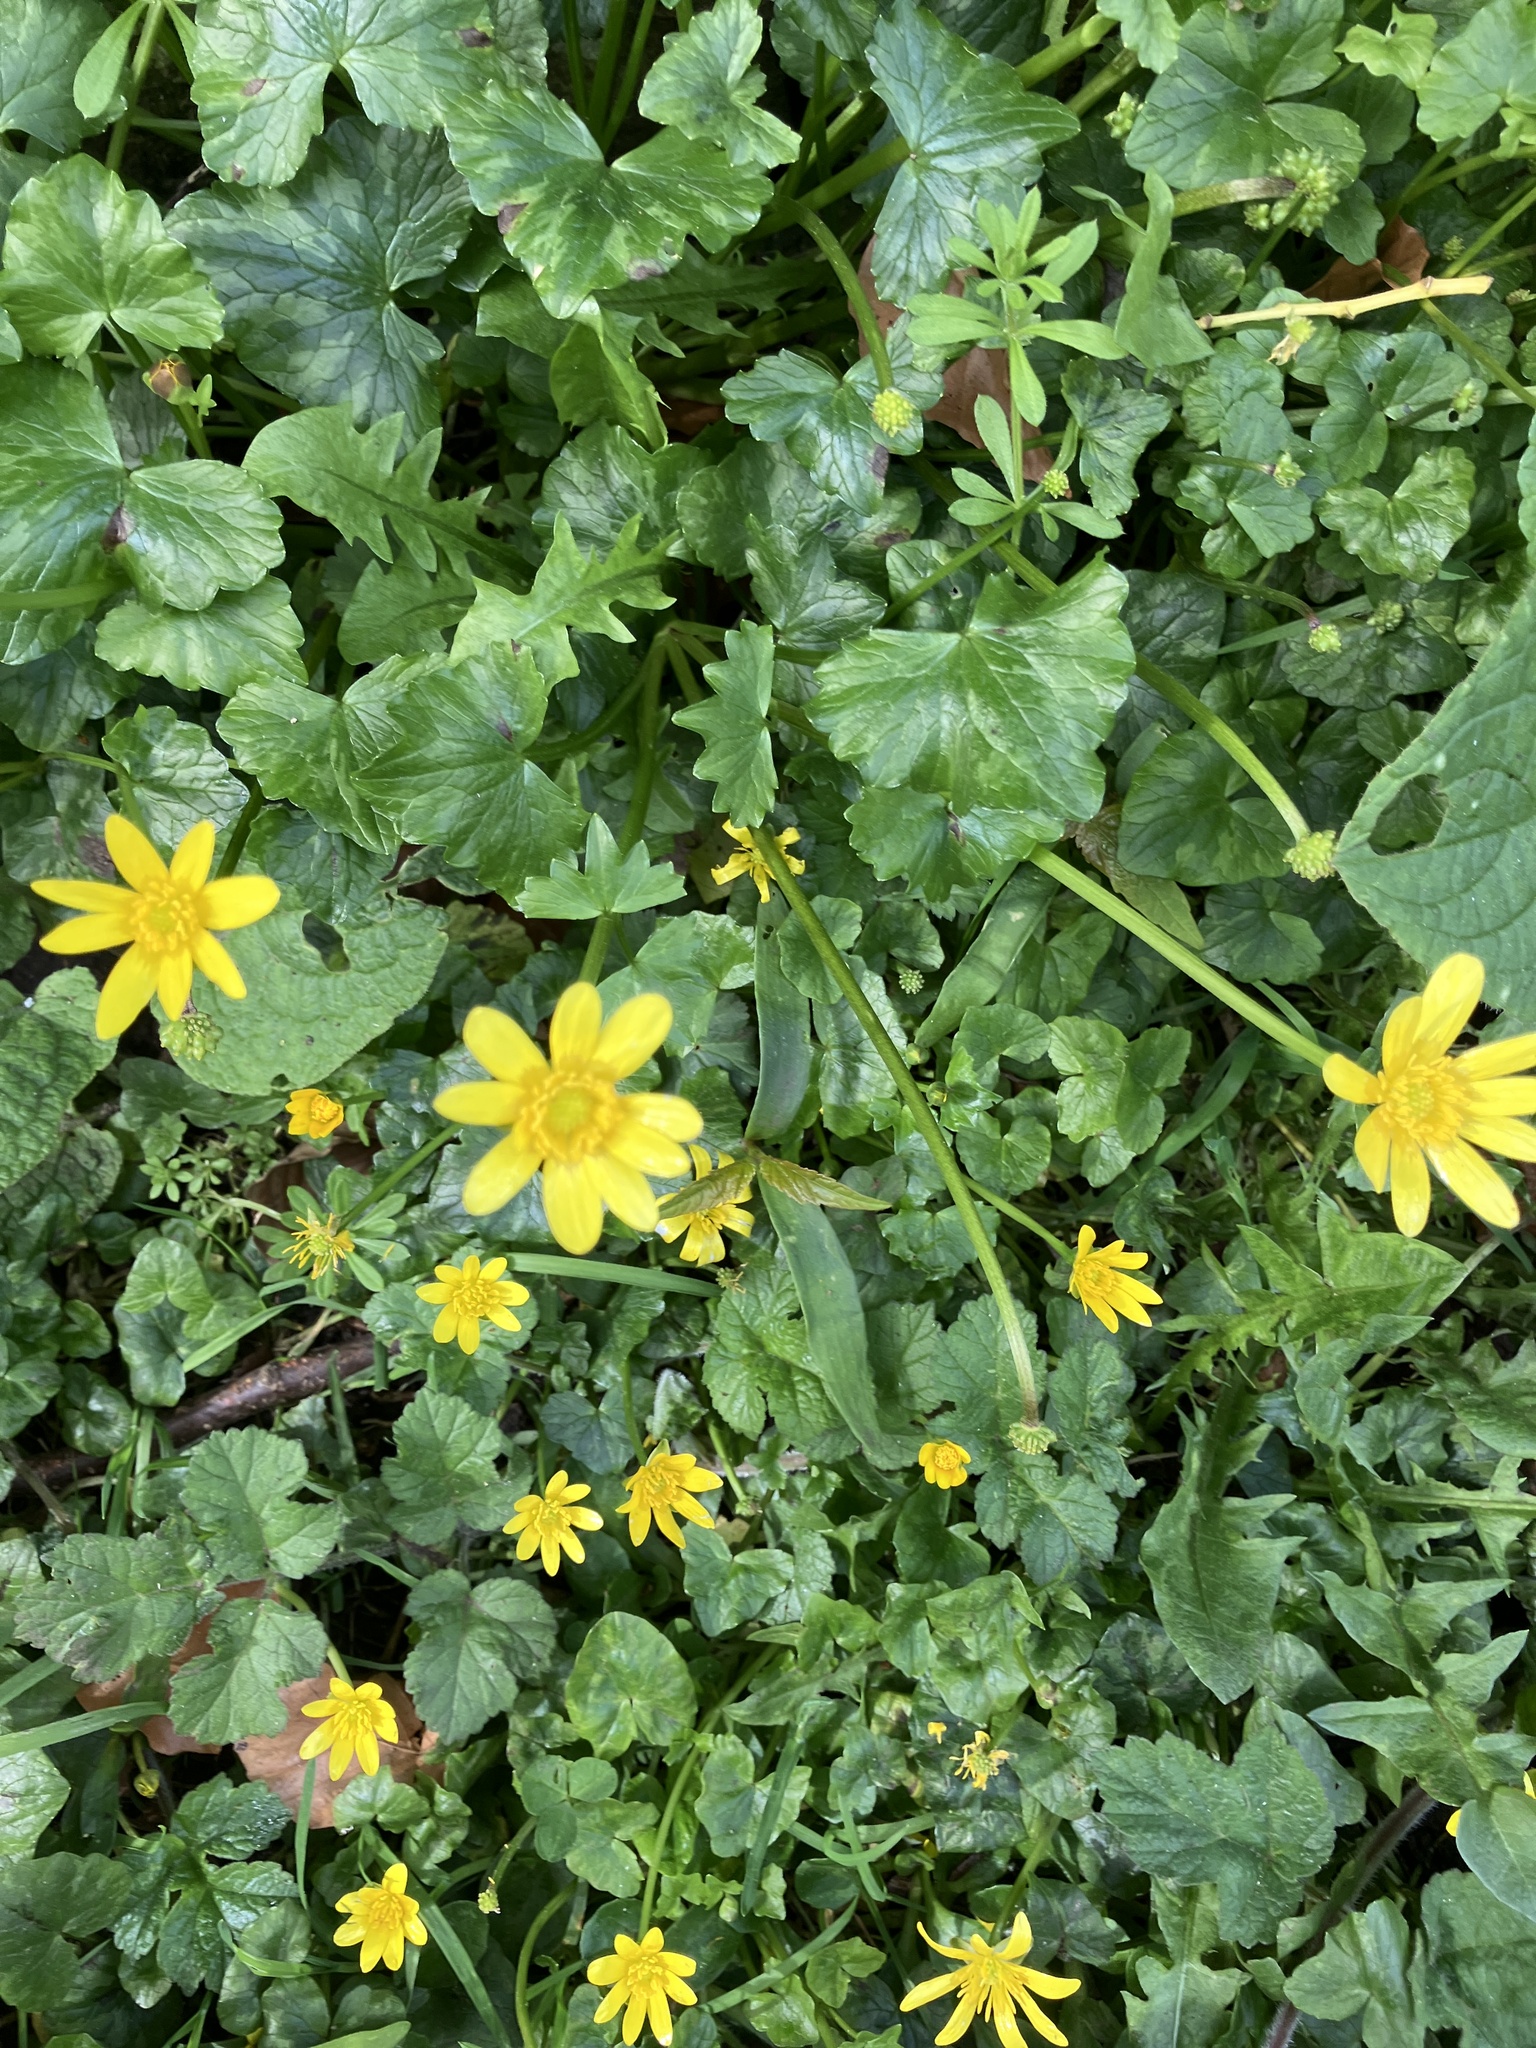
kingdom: Plantae
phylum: Tracheophyta
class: Magnoliopsida
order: Ranunculales
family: Ranunculaceae
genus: Ficaria
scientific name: Ficaria verna
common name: Lesser celandine
